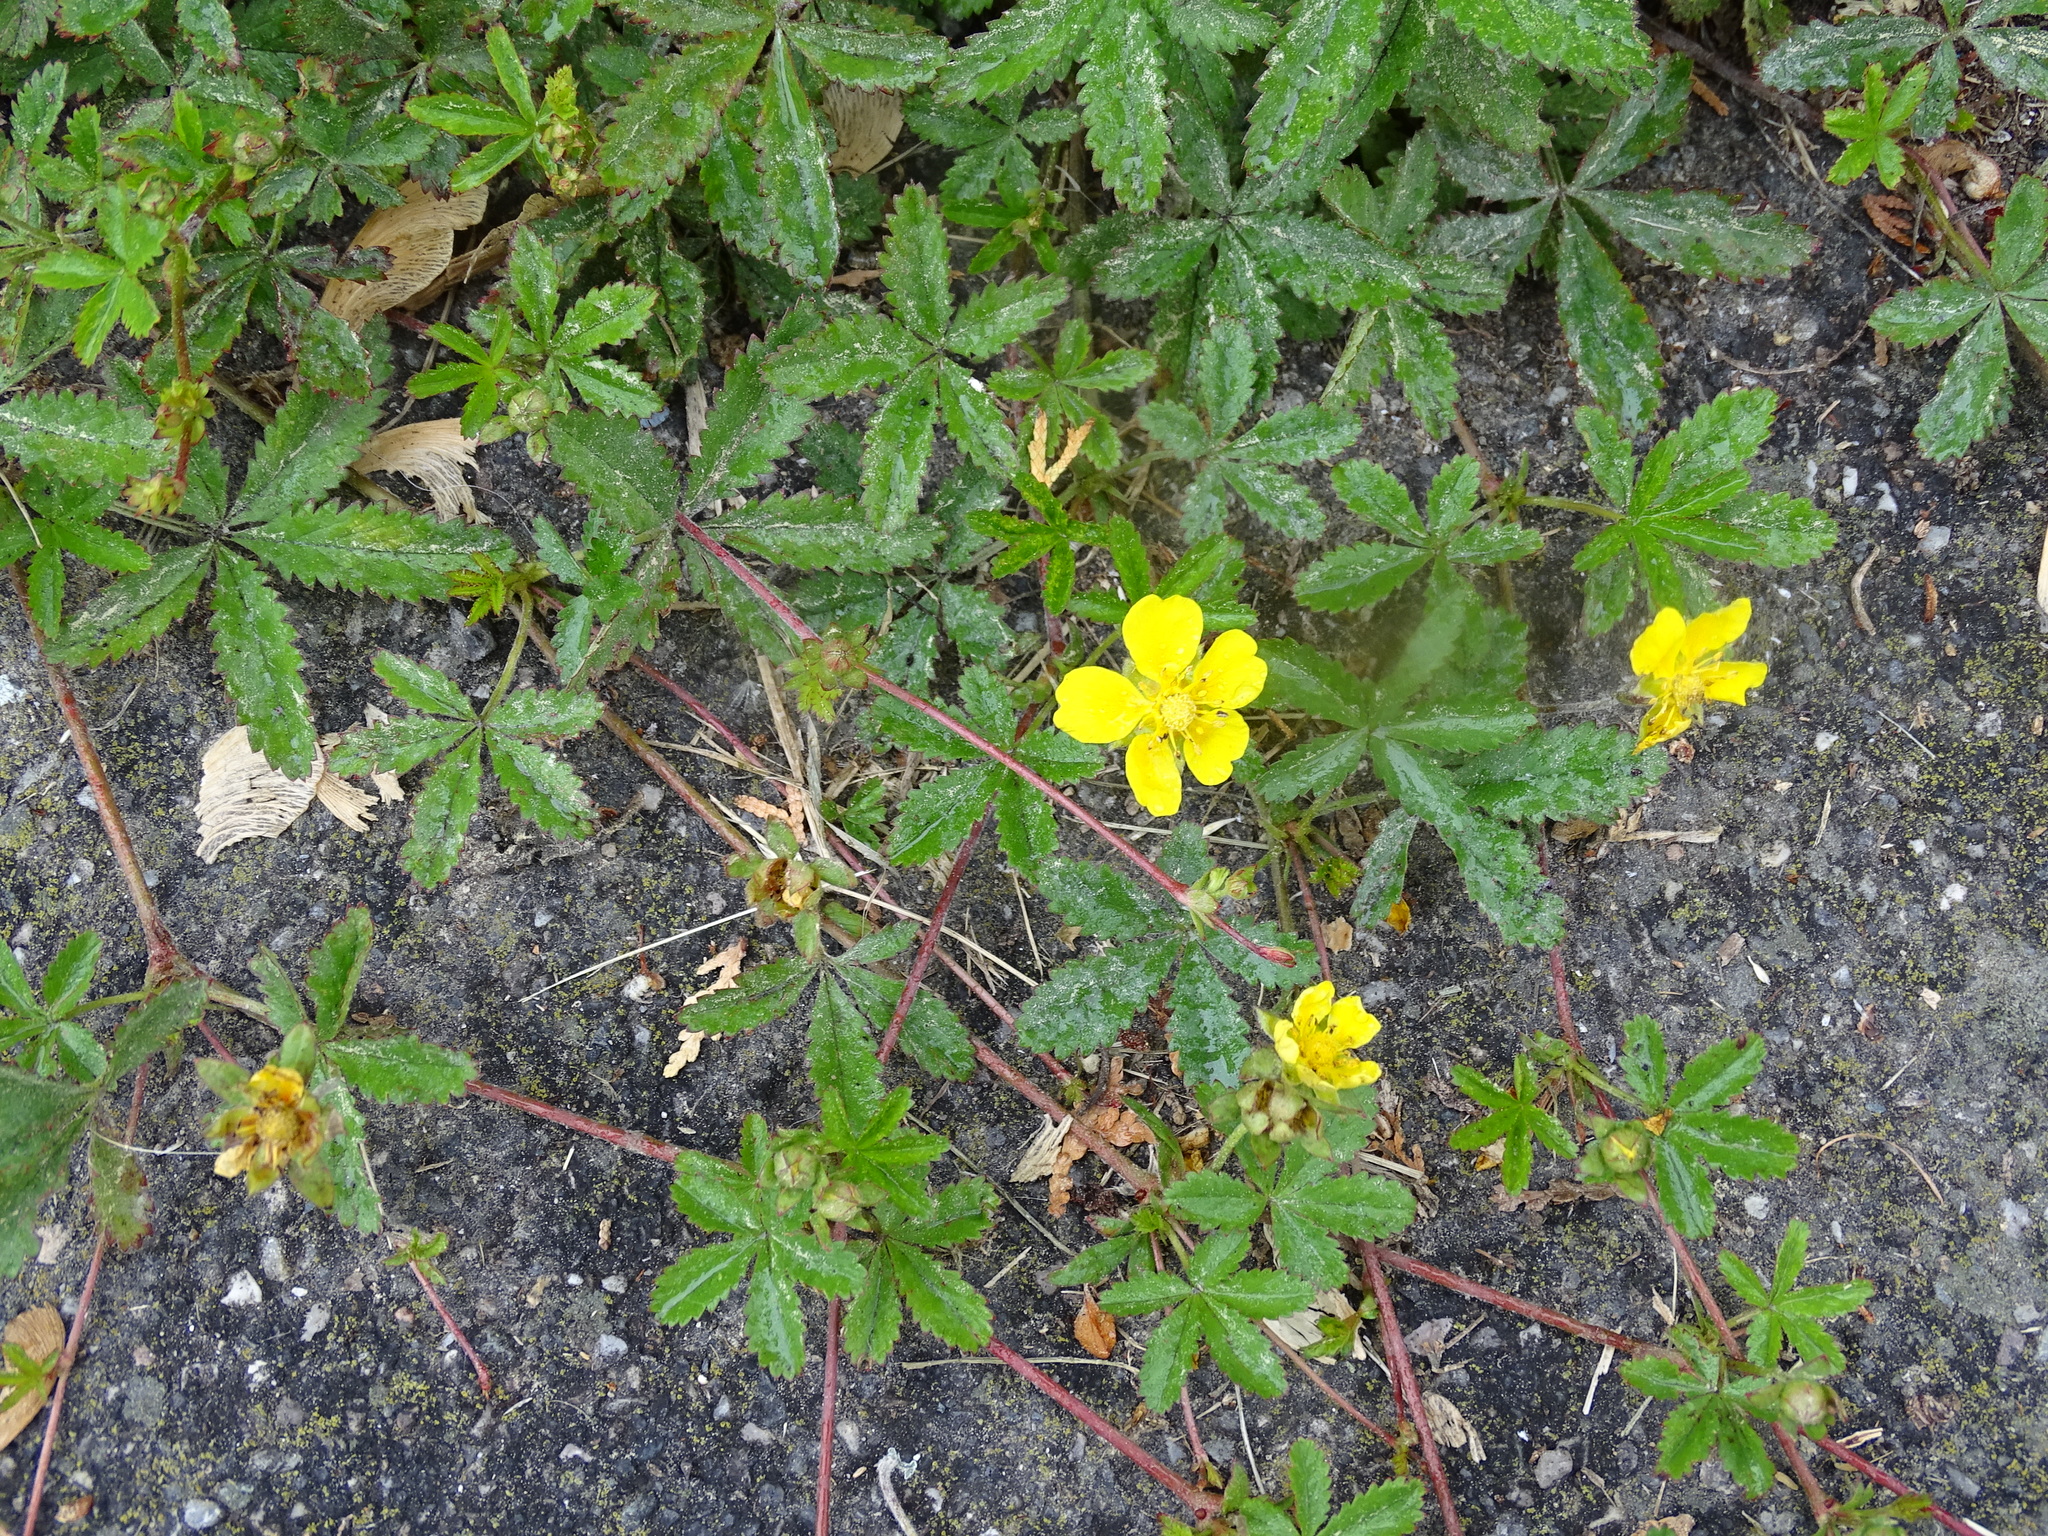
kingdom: Plantae
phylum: Tracheophyta
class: Magnoliopsida
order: Rosales
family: Rosaceae
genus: Potentilla
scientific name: Potentilla reptans
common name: Creeping cinquefoil
